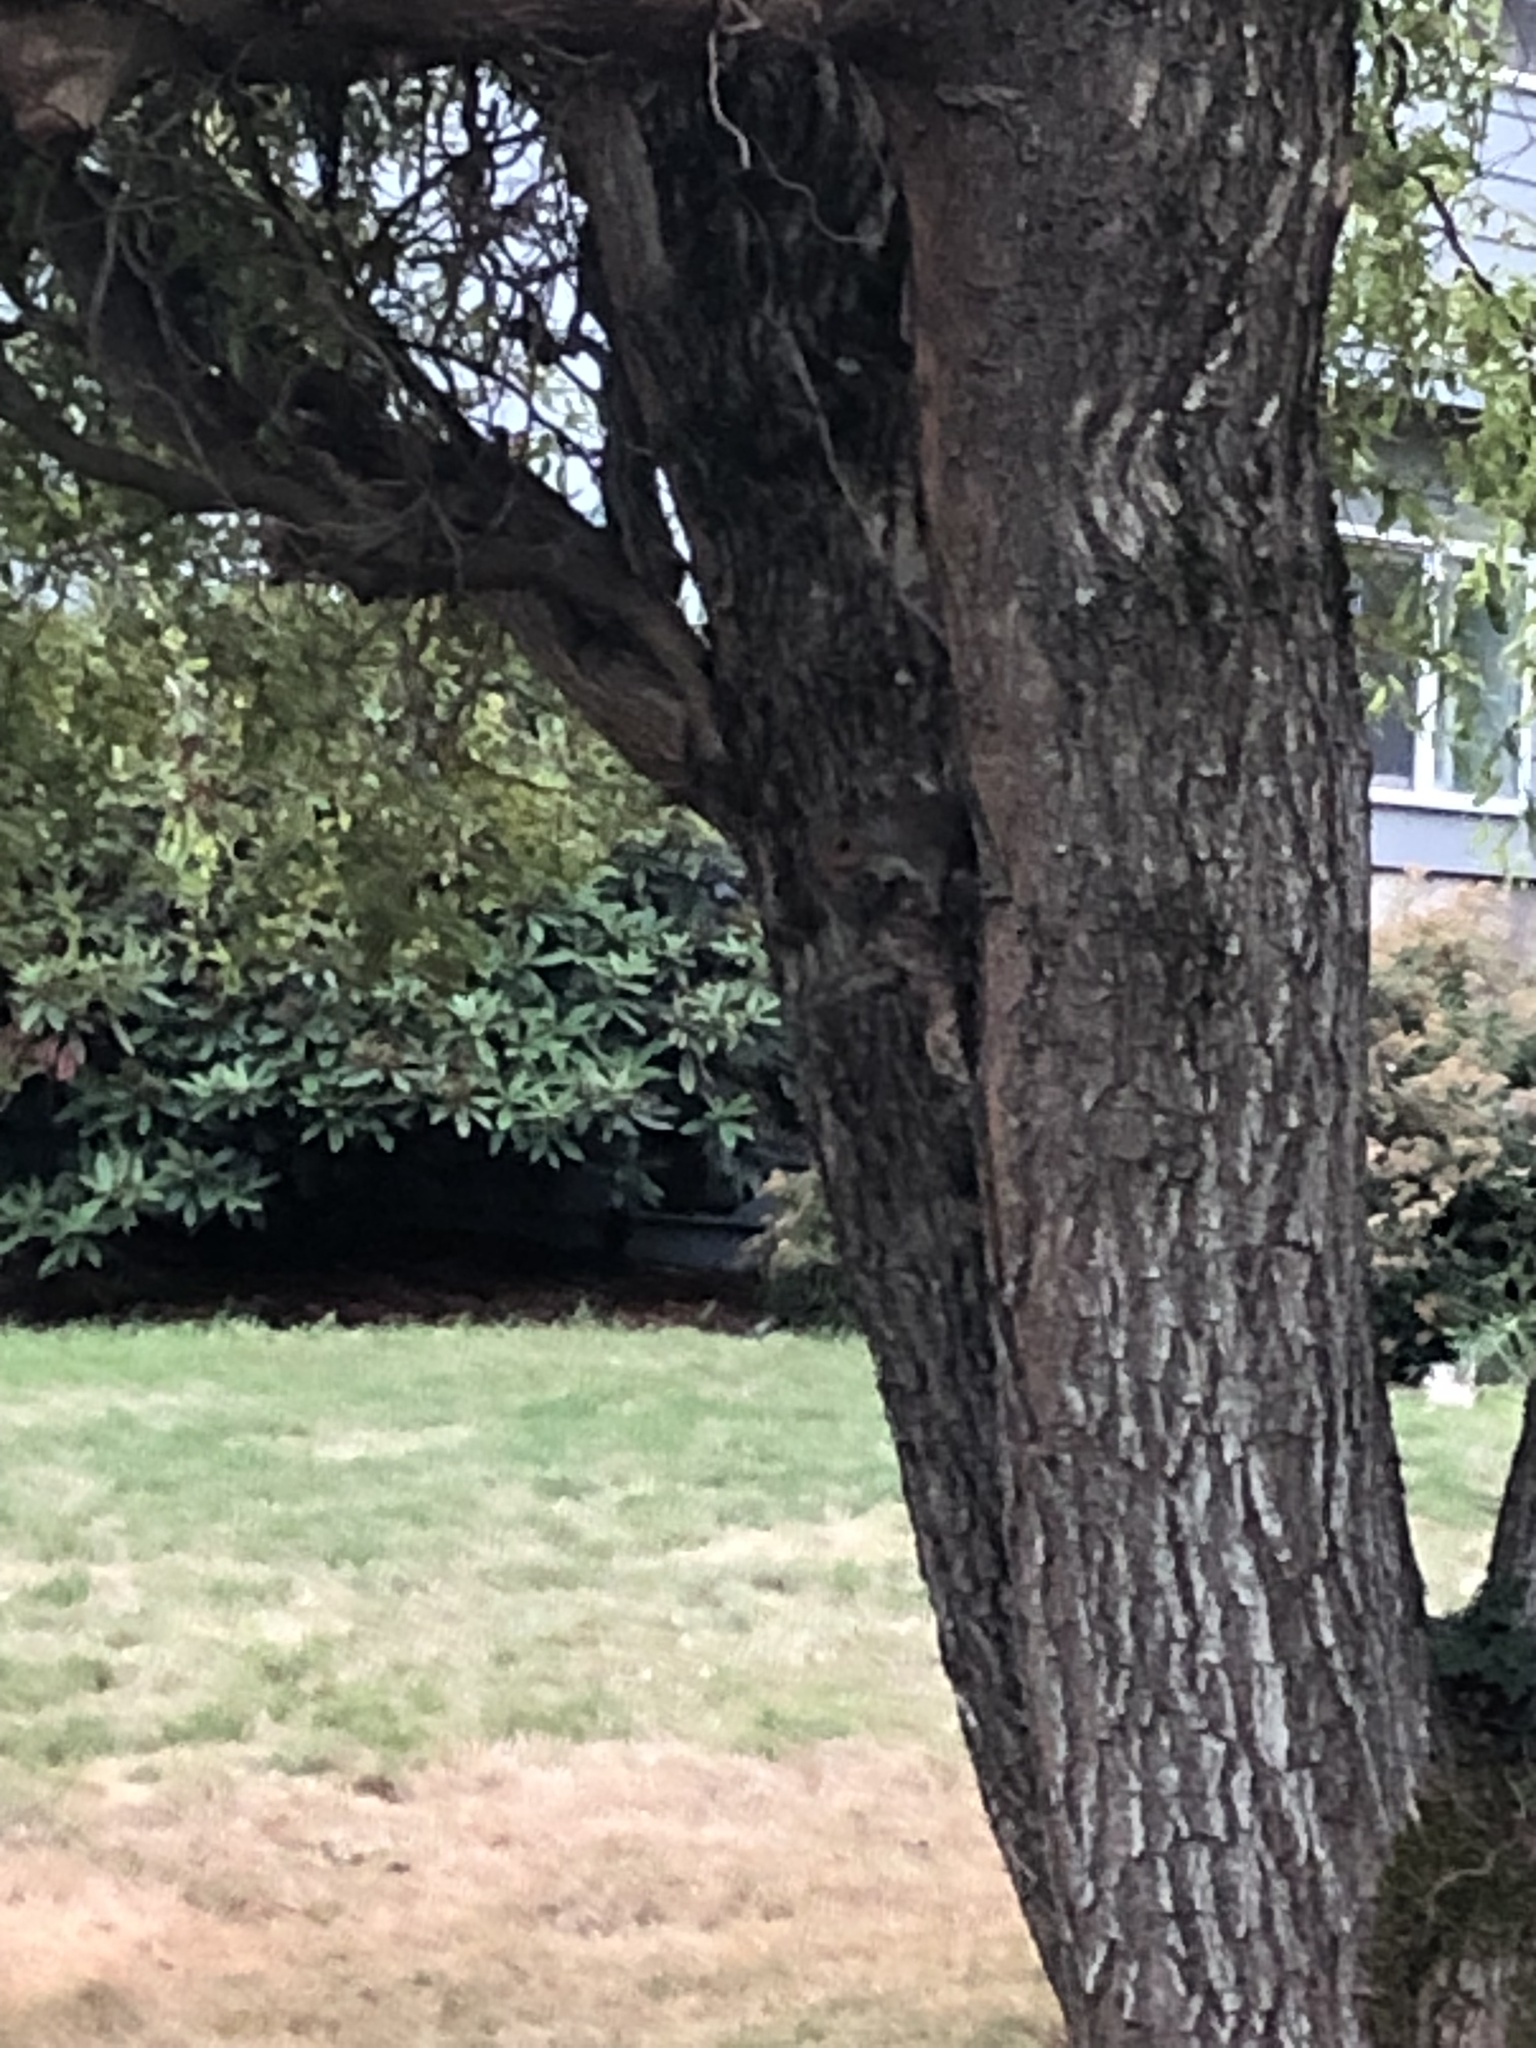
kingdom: Animalia
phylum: Chordata
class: Mammalia
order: Rodentia
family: Sciuridae
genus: Sciurus
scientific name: Sciurus carolinensis
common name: Eastern gray squirrel
